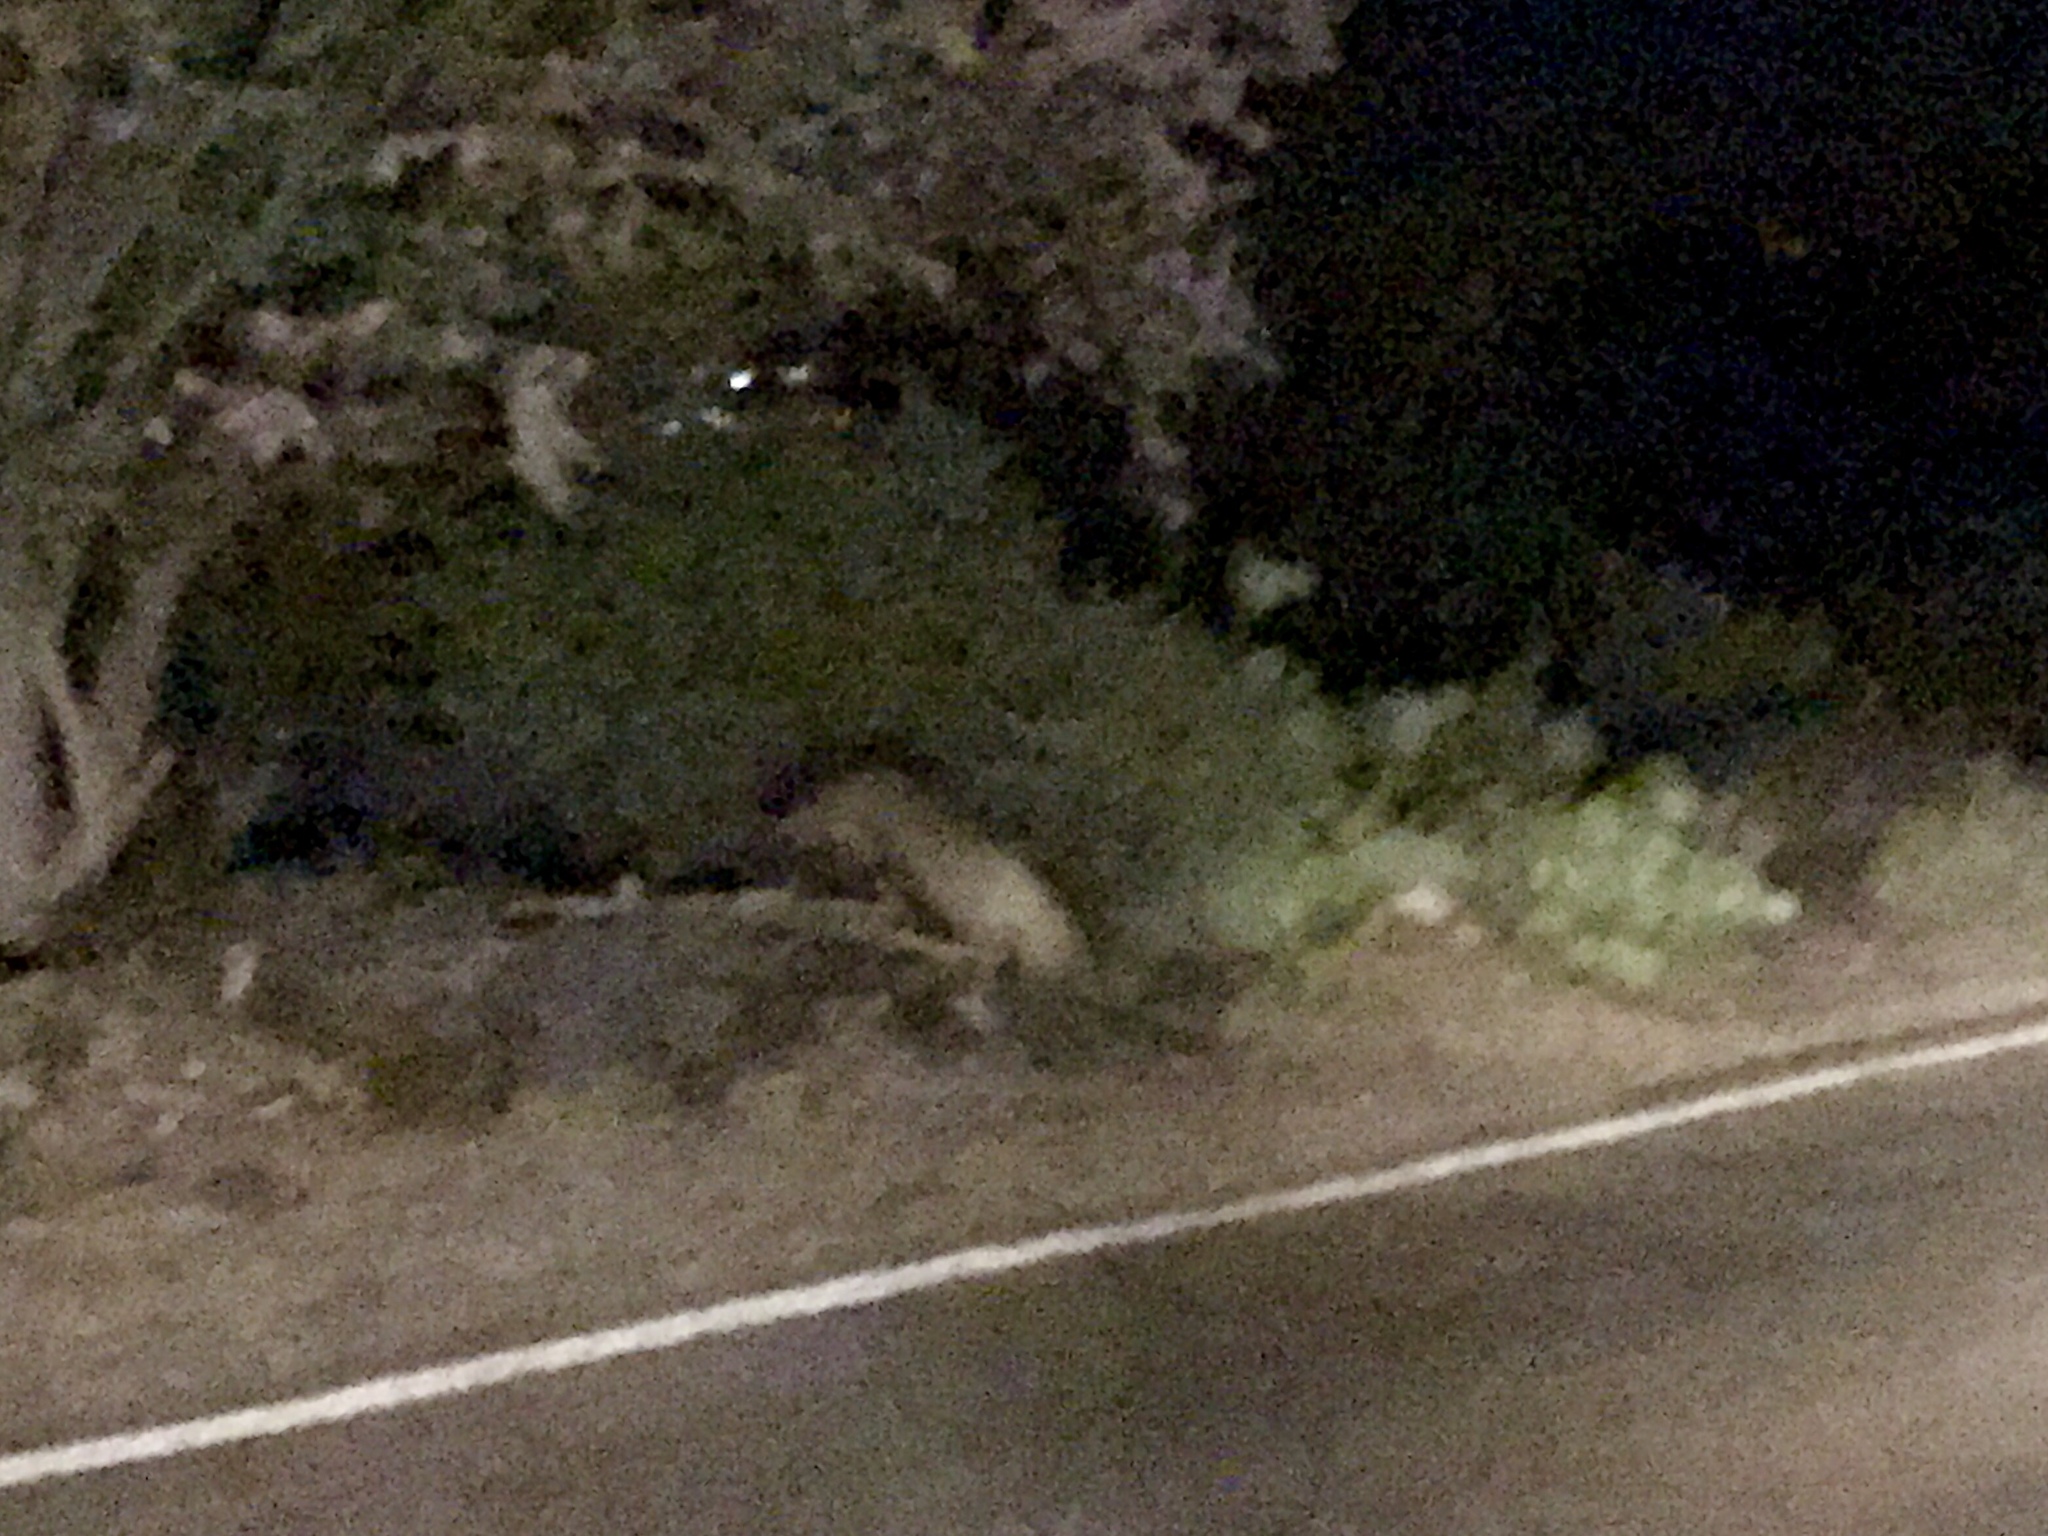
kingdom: Animalia
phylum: Chordata
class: Mammalia
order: Artiodactyla
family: Tayassuidae
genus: Pecari
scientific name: Pecari tajacu
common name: Collared peccary
